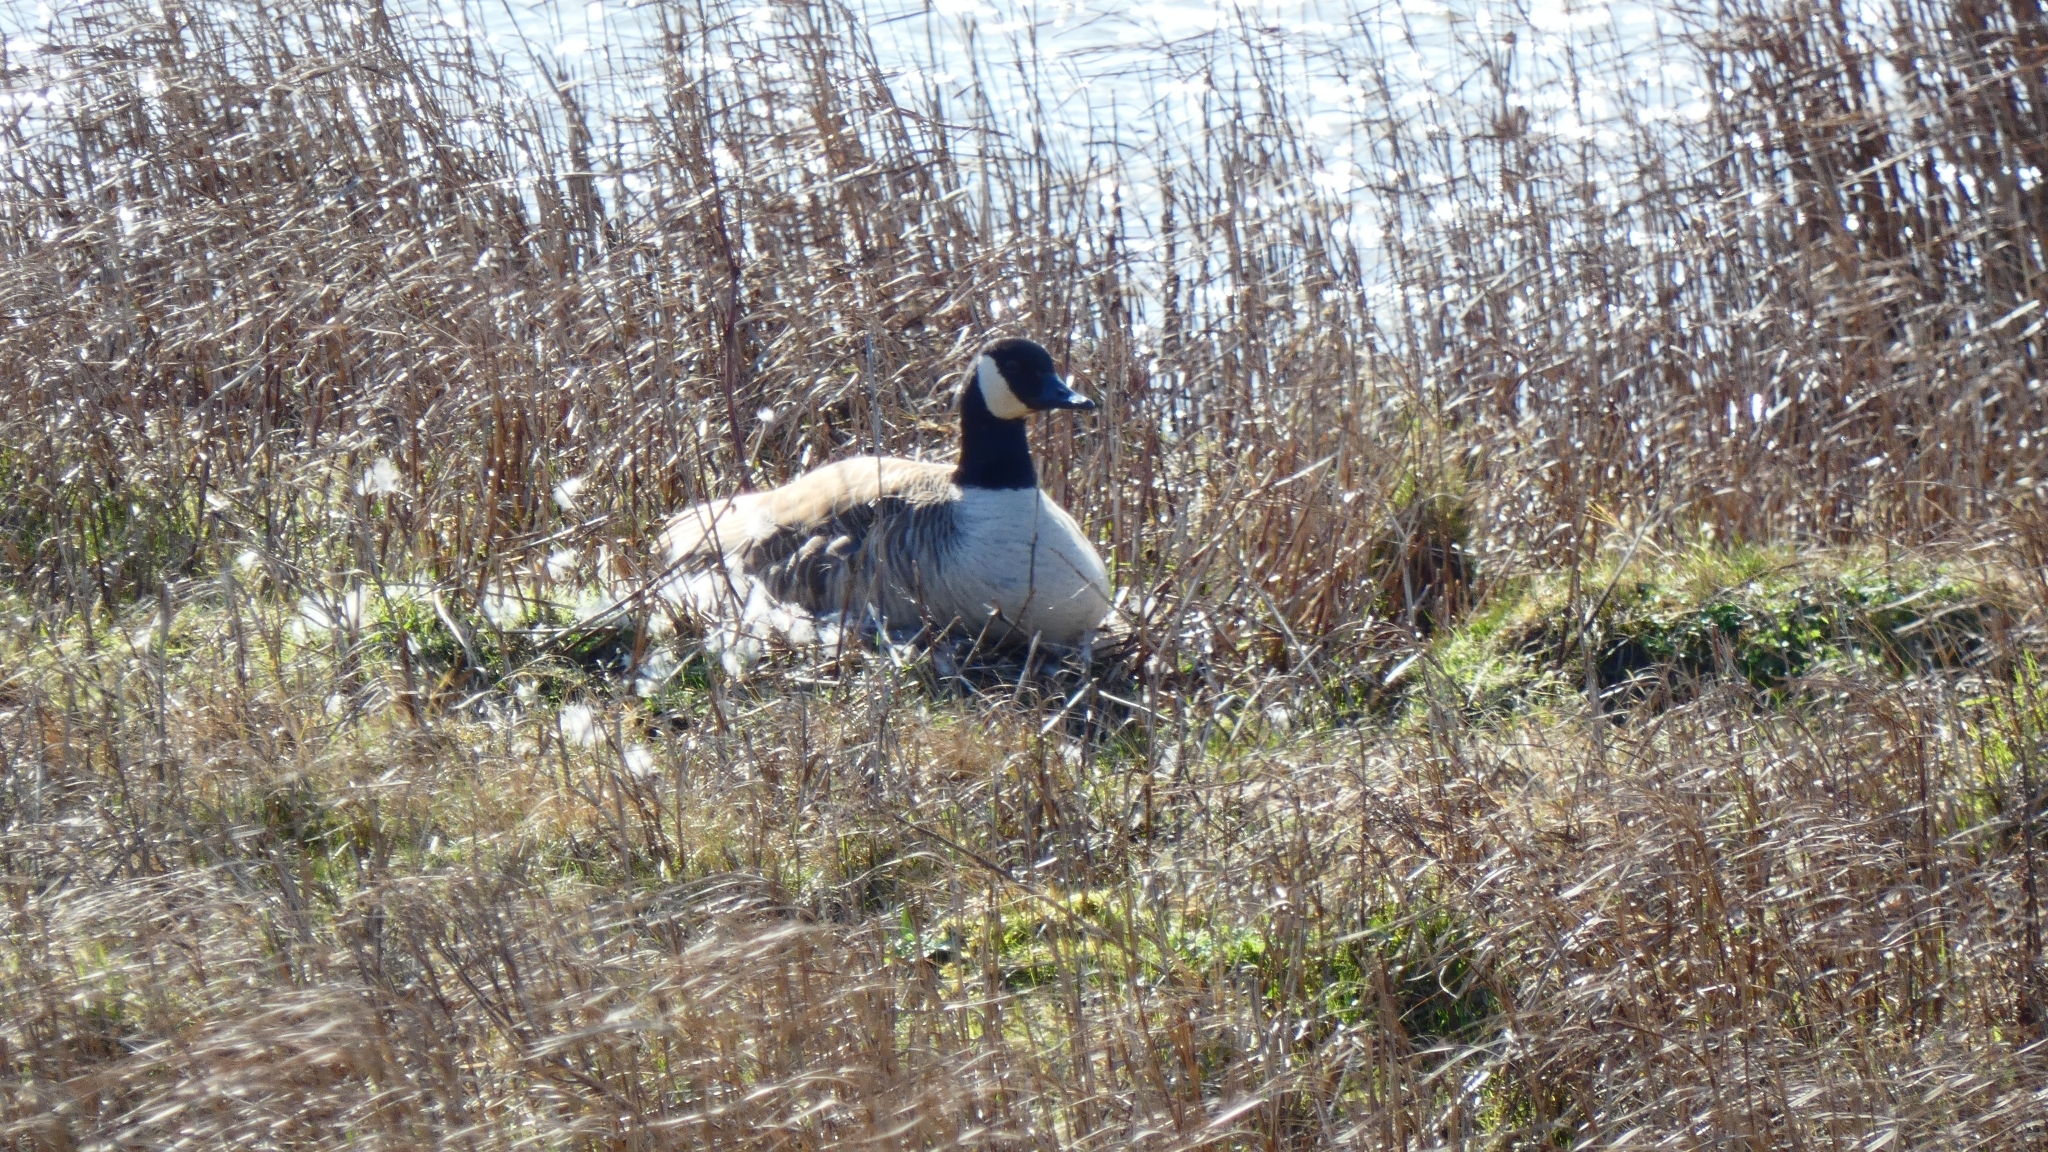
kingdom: Animalia
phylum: Chordata
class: Aves
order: Anseriformes
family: Anatidae
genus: Branta
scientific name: Branta canadensis
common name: Canada goose
